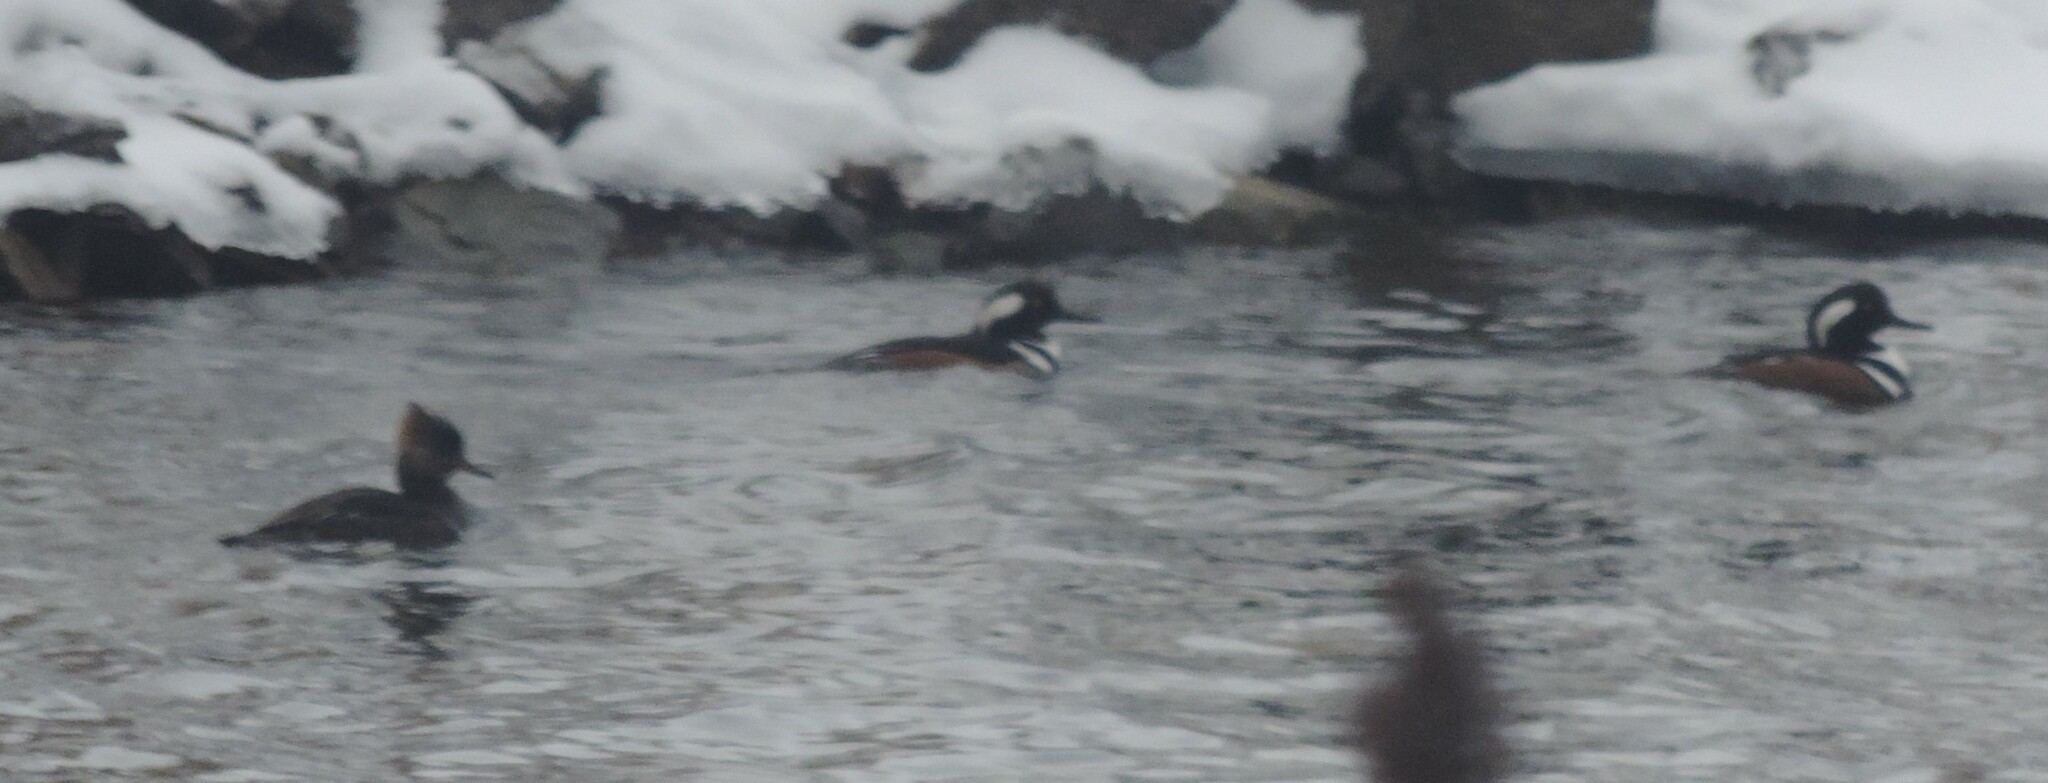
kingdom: Animalia
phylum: Chordata
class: Aves
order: Anseriformes
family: Anatidae
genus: Lophodytes
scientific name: Lophodytes cucullatus
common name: Hooded merganser
